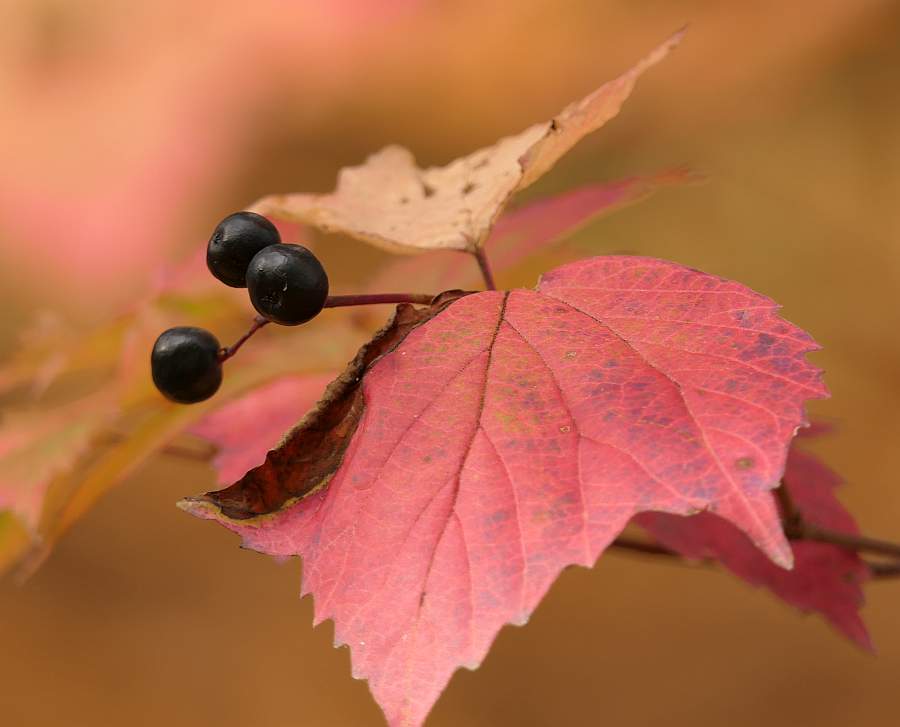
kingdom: Plantae
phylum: Tracheophyta
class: Magnoliopsida
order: Dipsacales
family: Viburnaceae
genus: Viburnum
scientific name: Viburnum acerifolium
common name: Dockmackie
